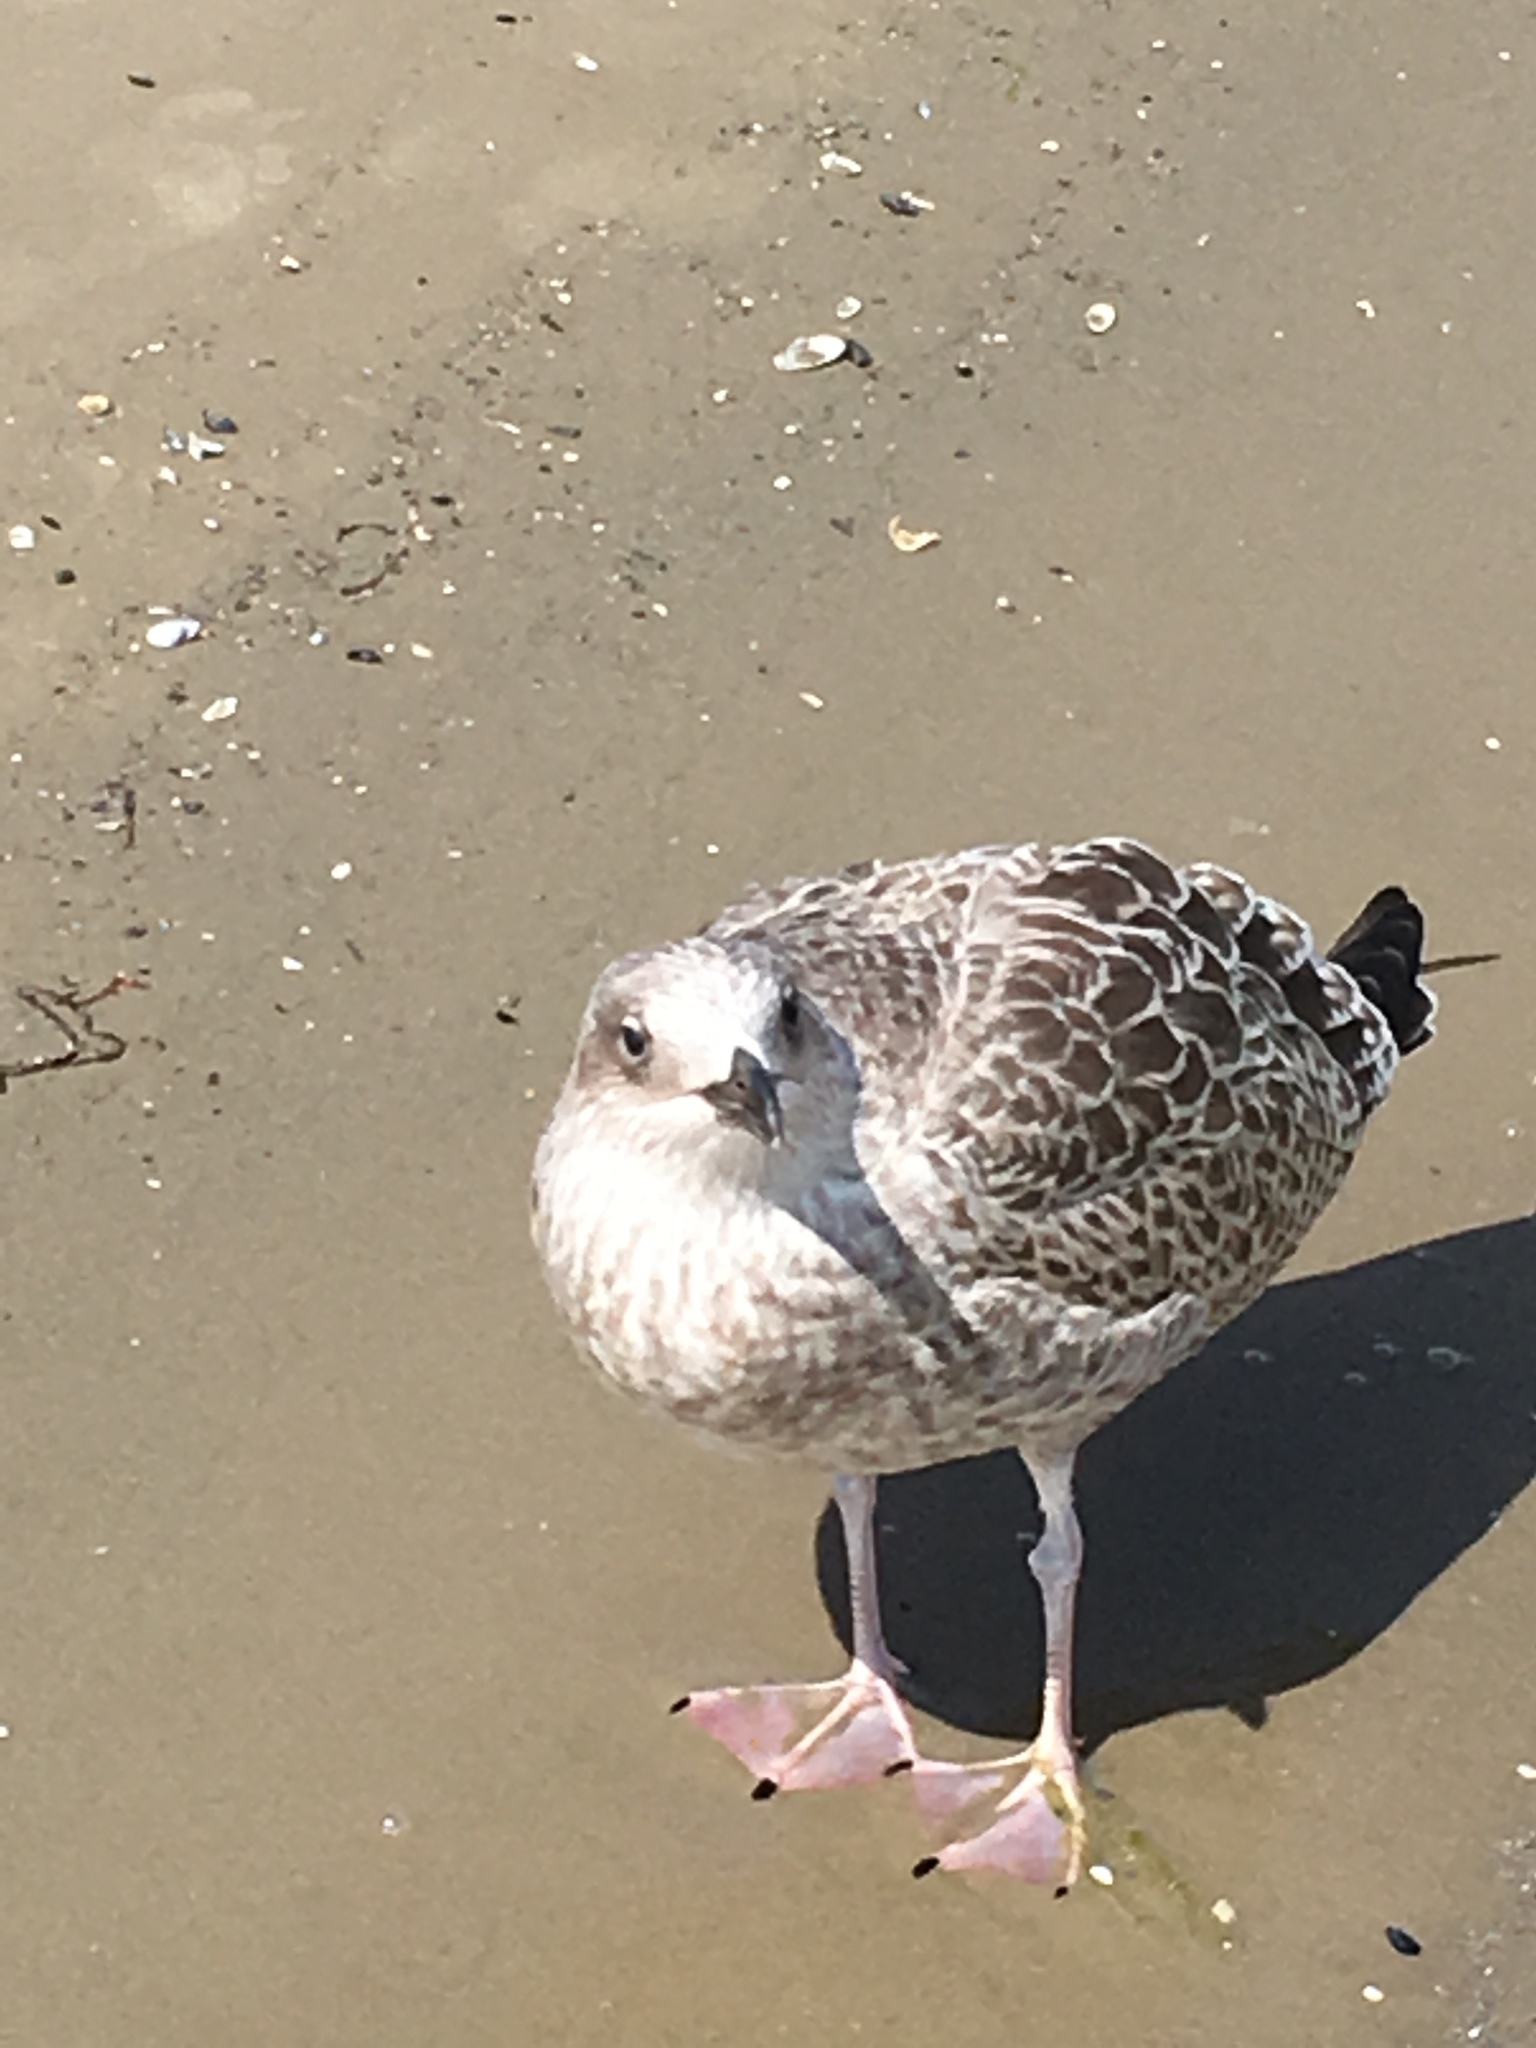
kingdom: Animalia
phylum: Chordata
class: Aves
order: Charadriiformes
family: Laridae
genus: Larus
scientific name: Larus argentatus
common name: Herring gull
